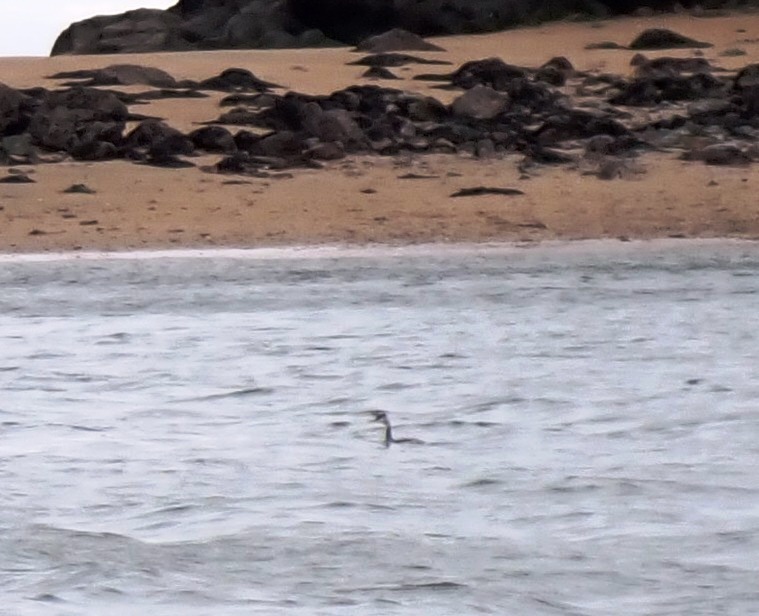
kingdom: Animalia
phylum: Chordata
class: Aves
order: Podicipediformes
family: Podicipedidae
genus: Podiceps
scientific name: Podiceps cristatus
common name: Great crested grebe
